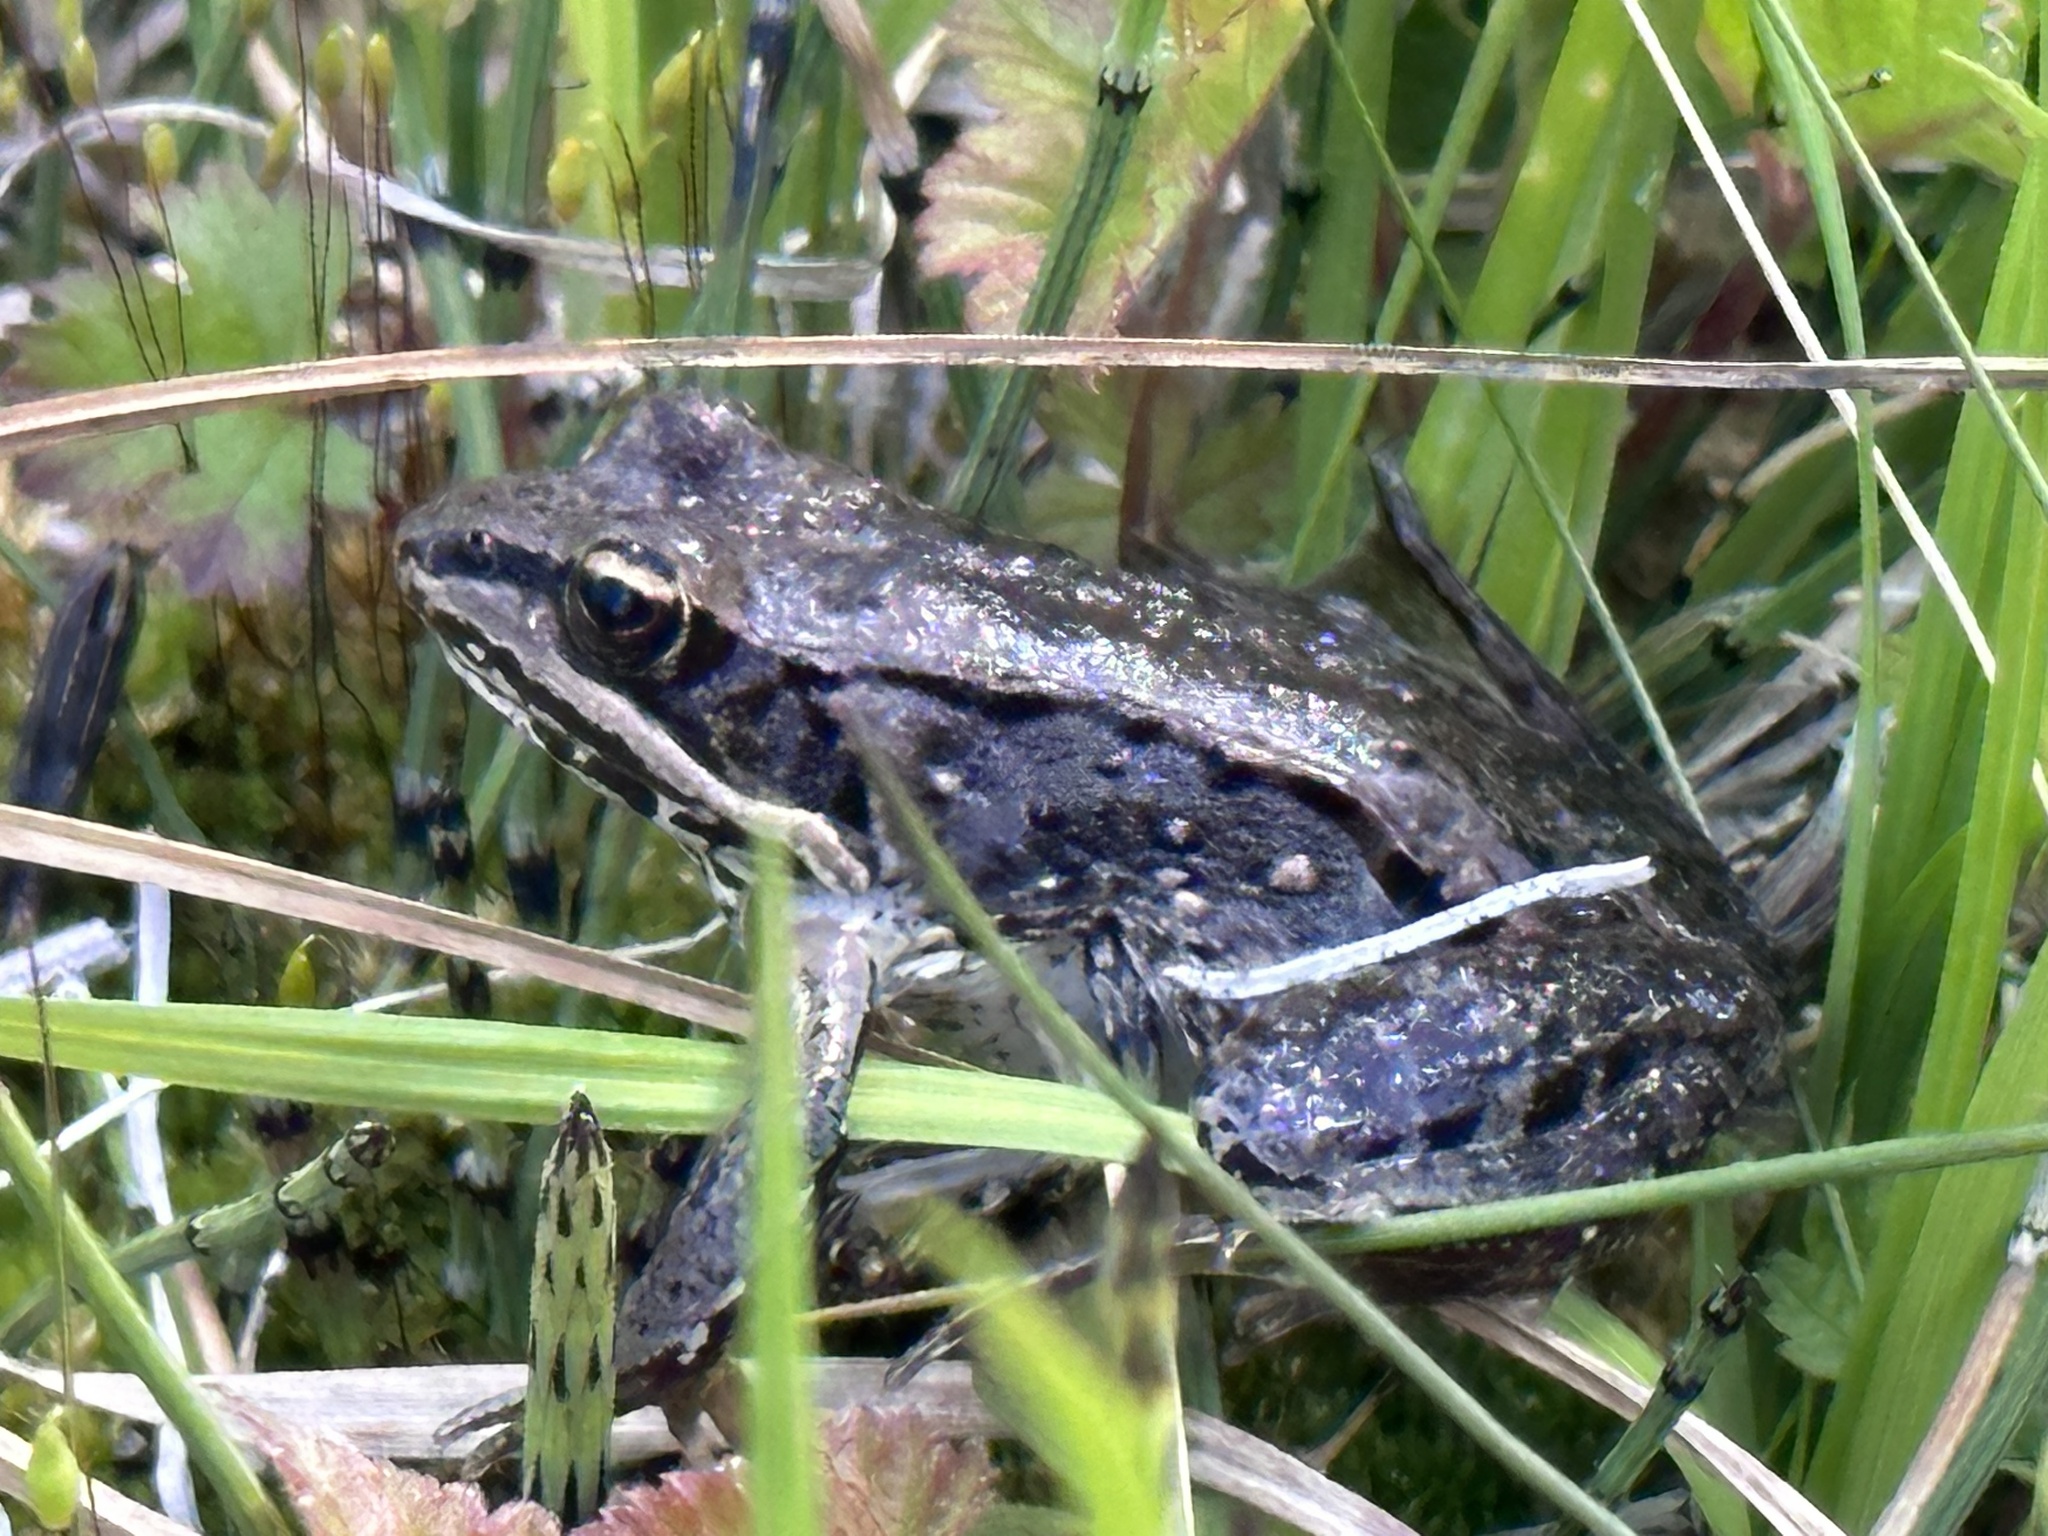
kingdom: Animalia
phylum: Chordata
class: Amphibia
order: Anura
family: Ranidae
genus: Lithobates
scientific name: Lithobates sylvaticus
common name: Wood frog
